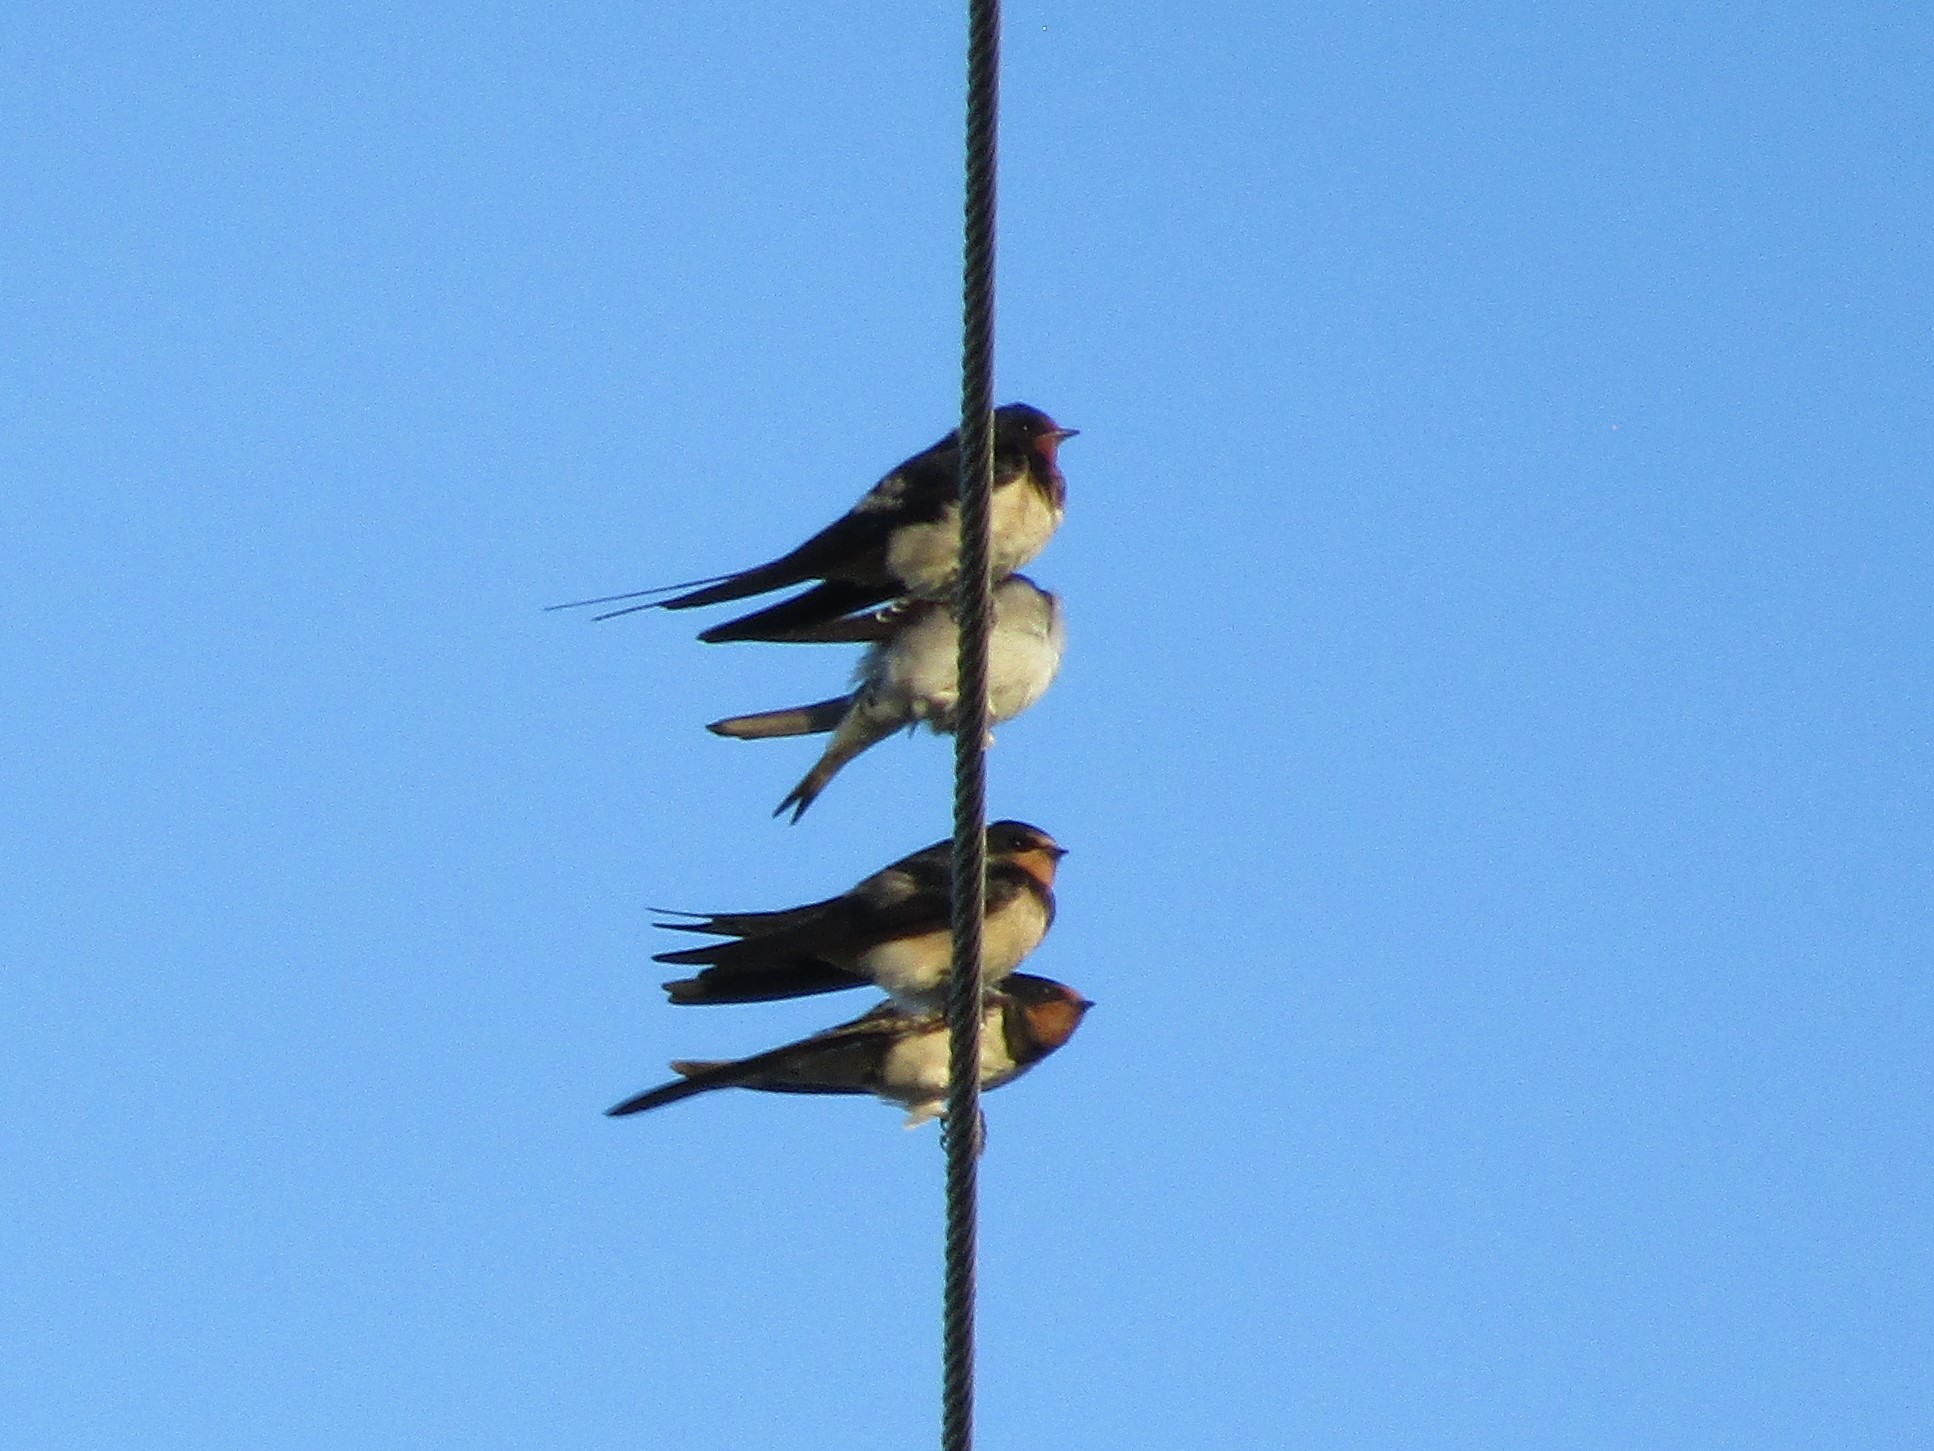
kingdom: Animalia
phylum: Chordata
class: Aves
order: Passeriformes
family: Hirundinidae
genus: Hirundo
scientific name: Hirundo rustica
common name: Barn swallow
